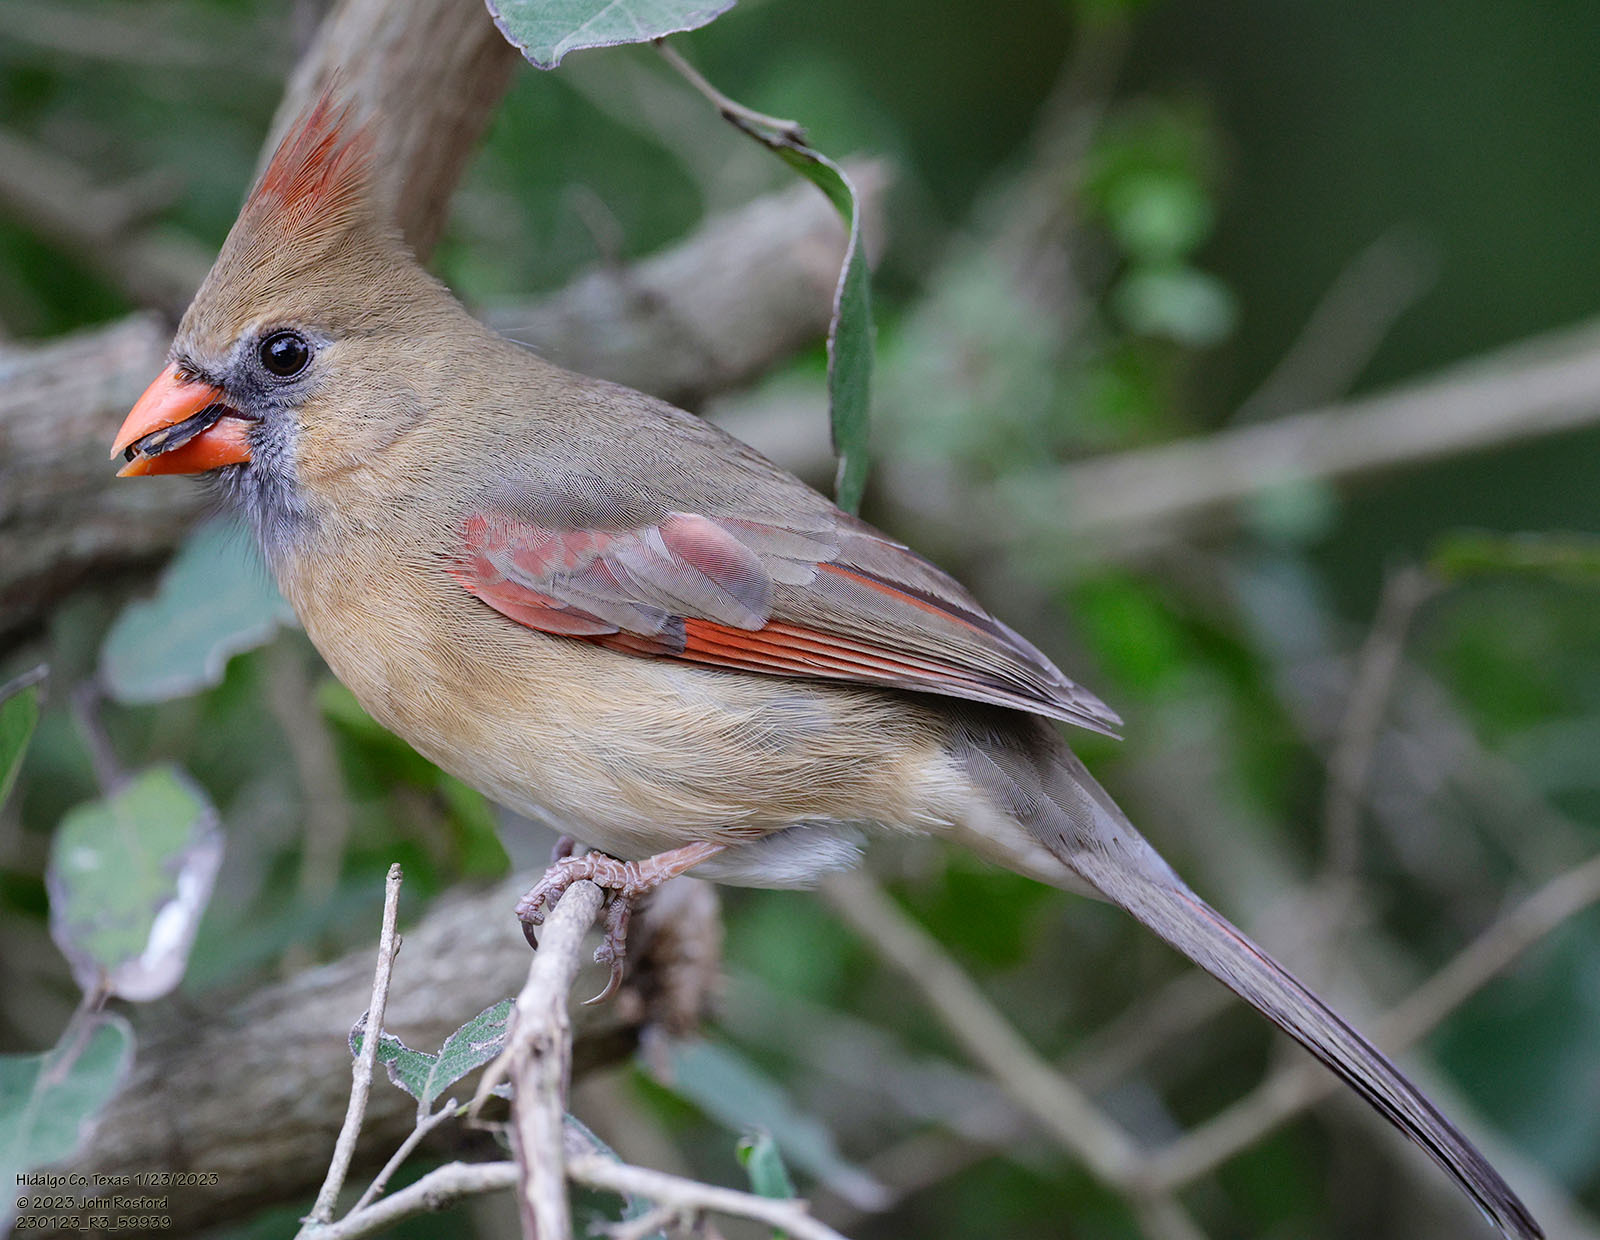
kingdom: Animalia
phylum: Chordata
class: Aves
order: Passeriformes
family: Cardinalidae
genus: Cardinalis
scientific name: Cardinalis cardinalis
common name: Northern cardinal
